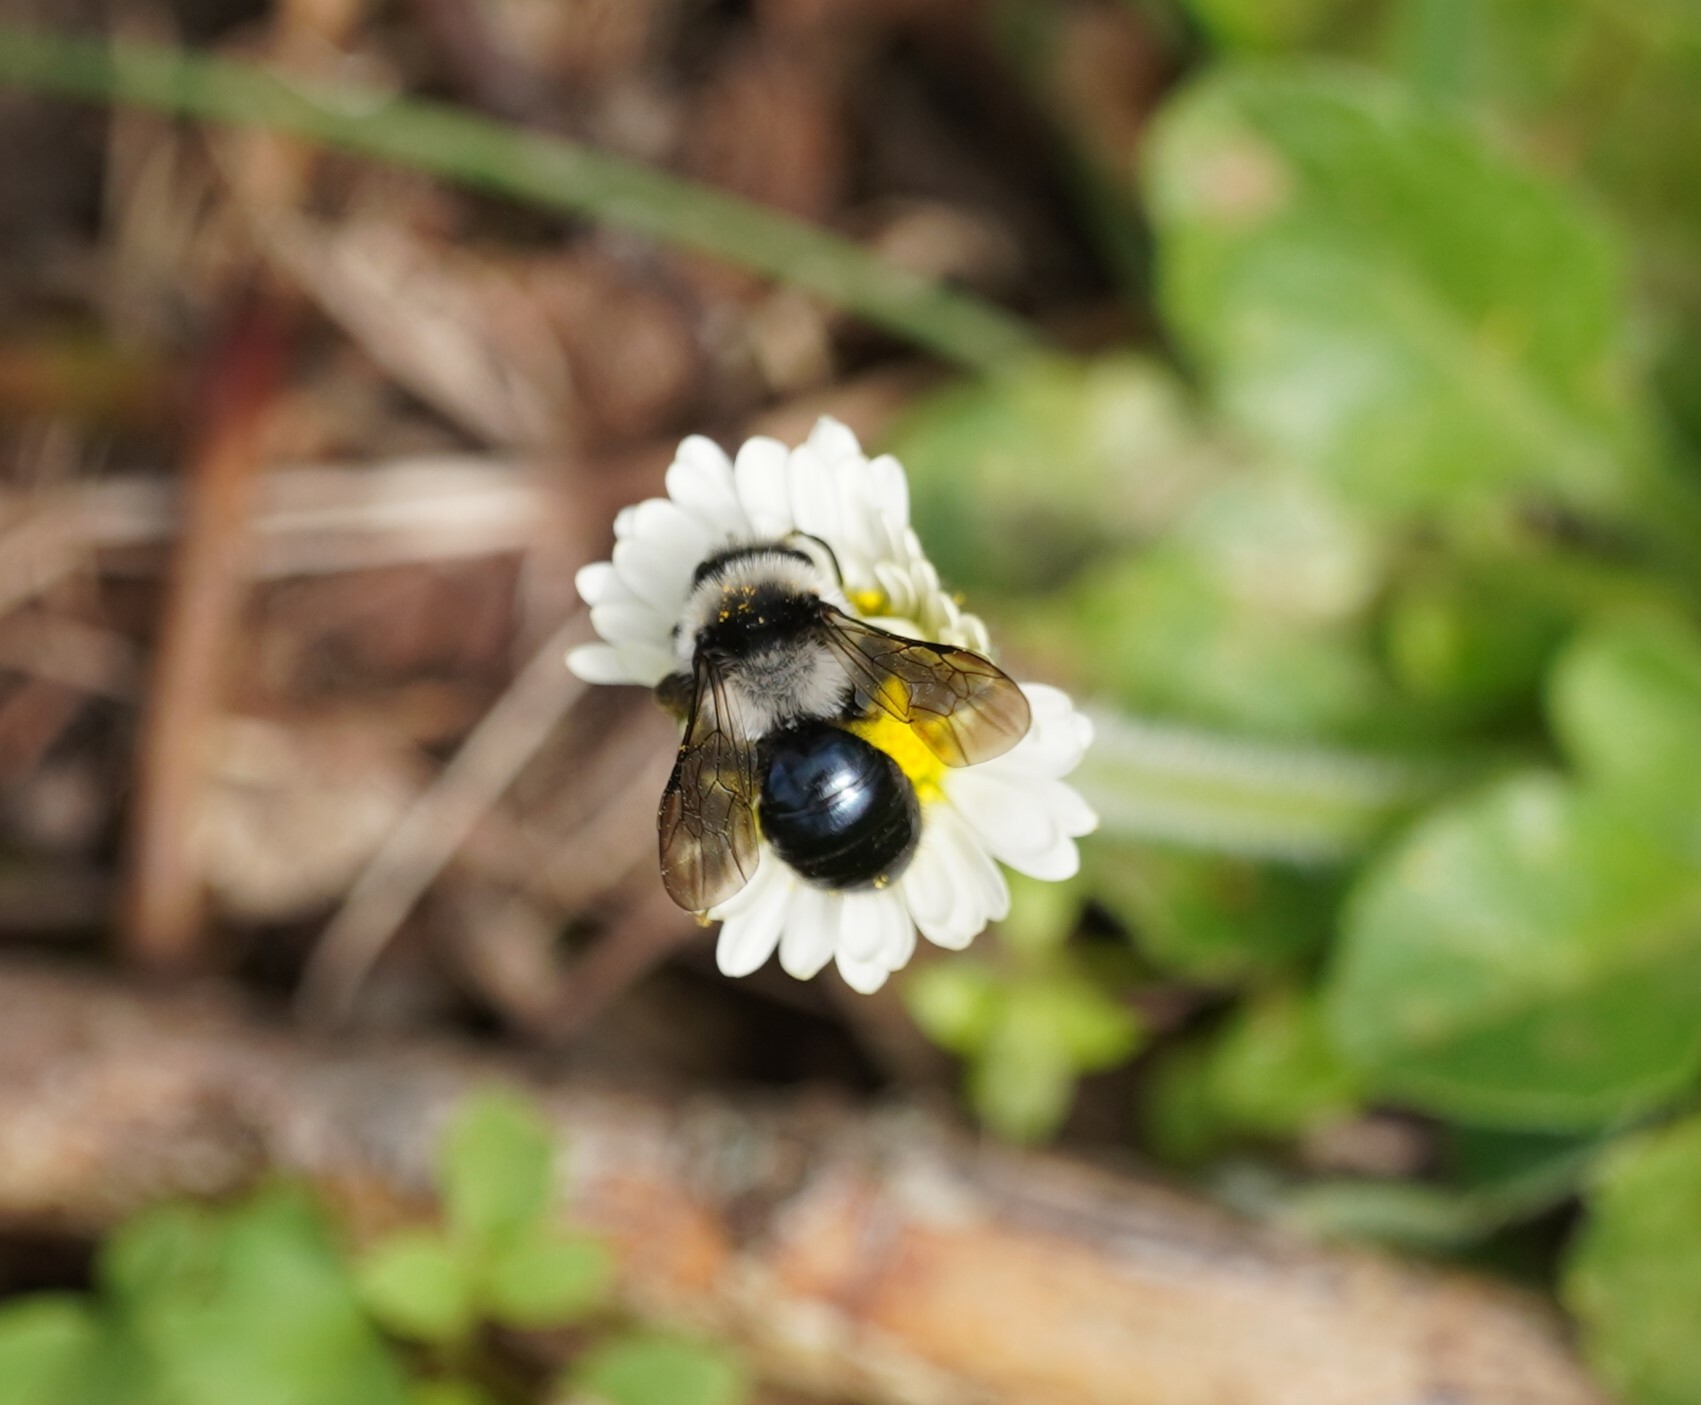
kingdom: Animalia
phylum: Arthropoda
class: Insecta
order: Hymenoptera
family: Andrenidae
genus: Andrena
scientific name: Andrena cineraria
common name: Ashy mining bee
